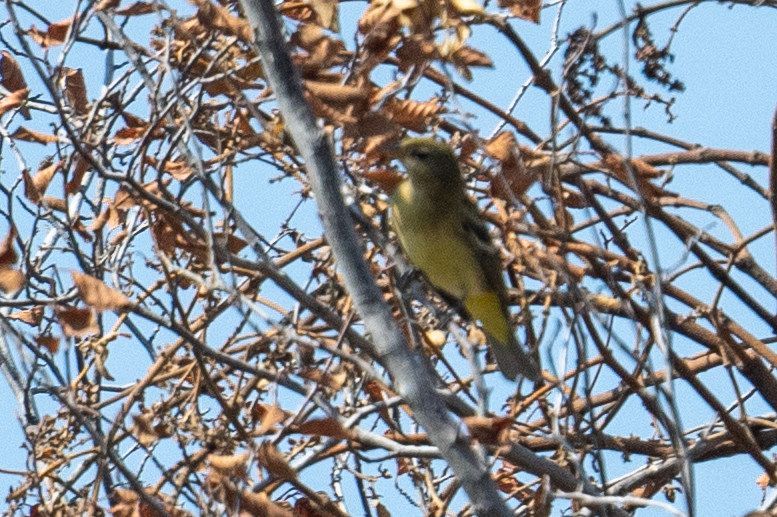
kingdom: Animalia
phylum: Chordata
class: Aves
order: Passeriformes
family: Cardinalidae
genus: Piranga
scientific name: Piranga ludoviciana
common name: Western tanager
